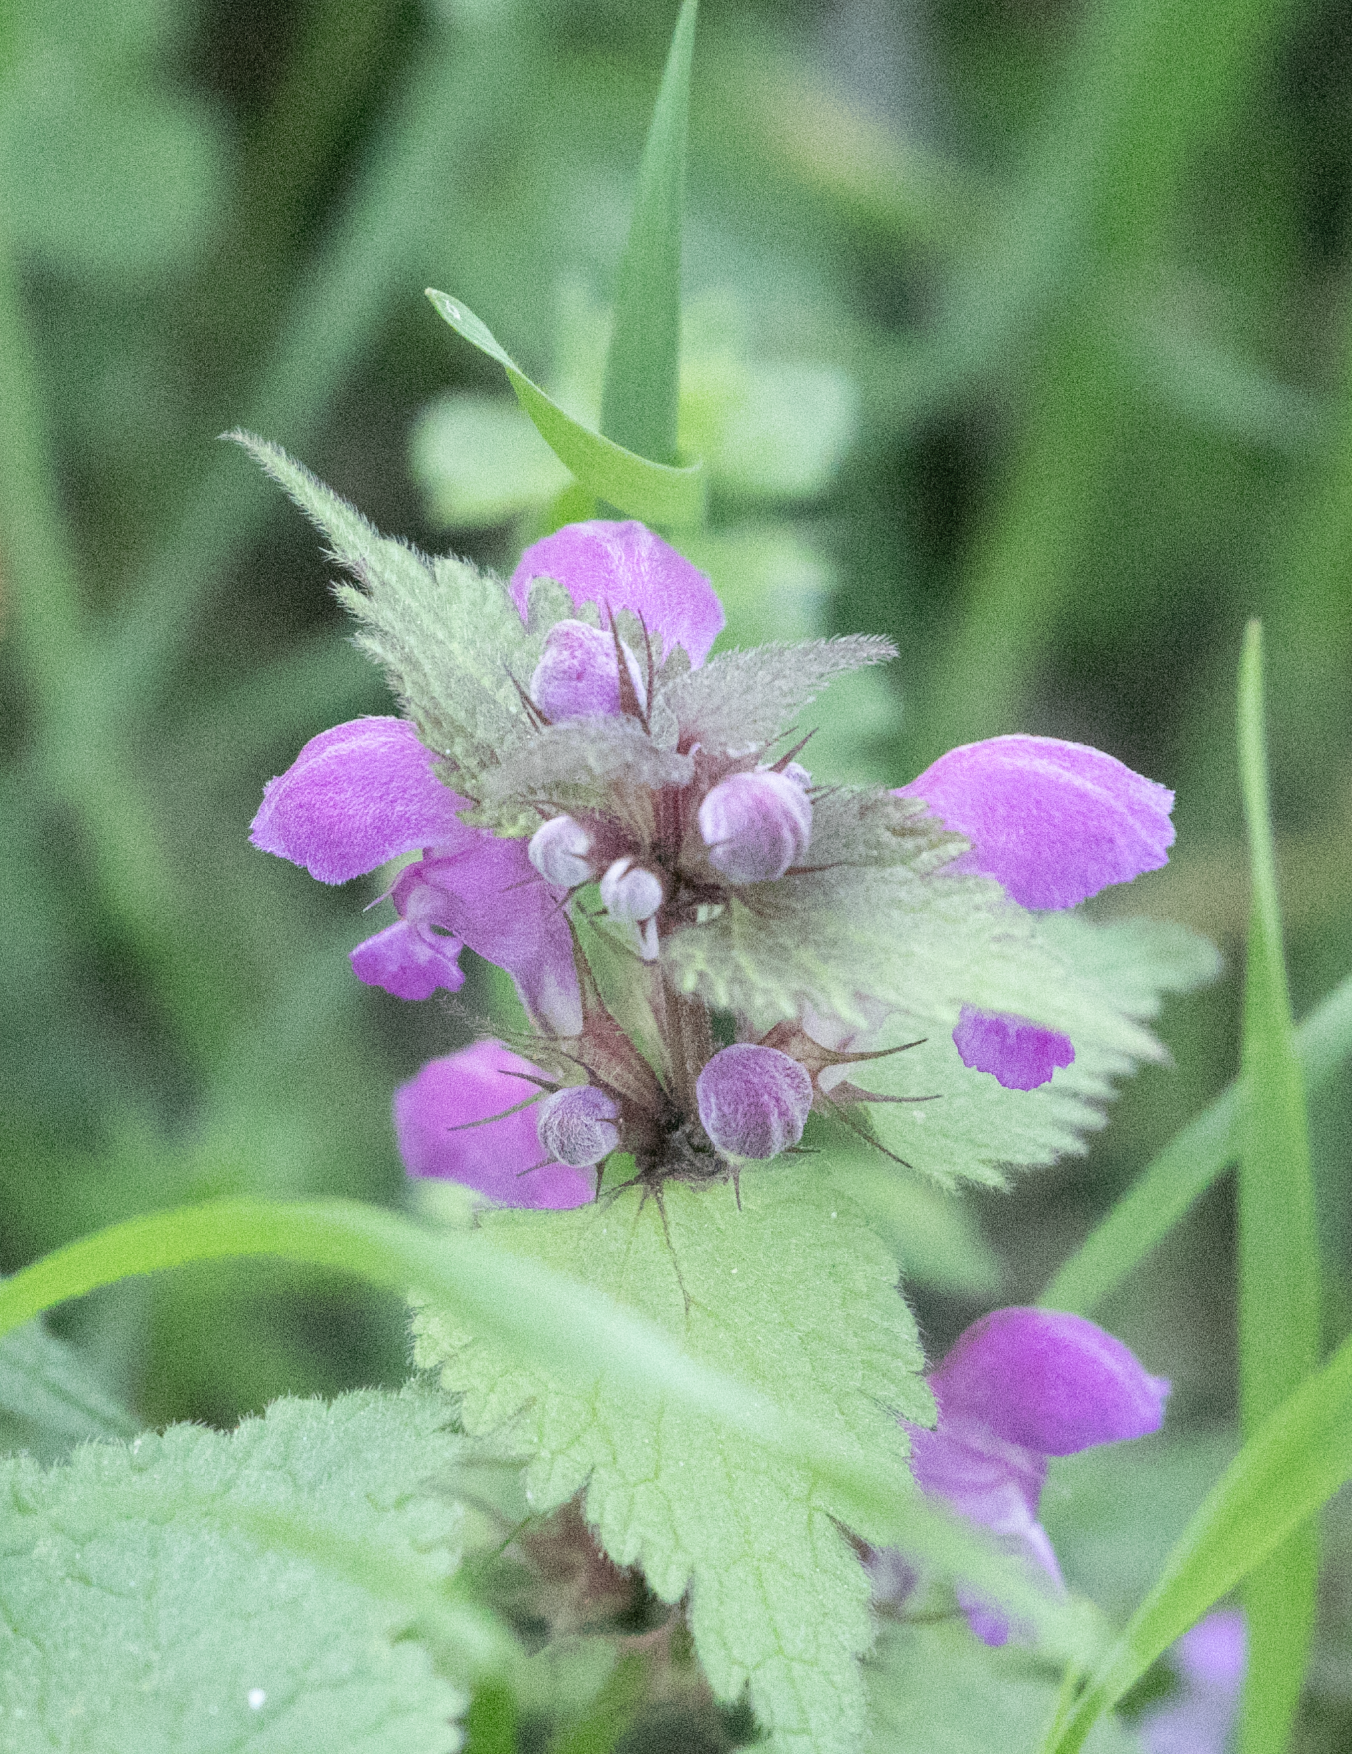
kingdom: Plantae
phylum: Tracheophyta
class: Magnoliopsida
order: Lamiales
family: Lamiaceae
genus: Lamium
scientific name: Lamium maculatum
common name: Spotted dead-nettle
